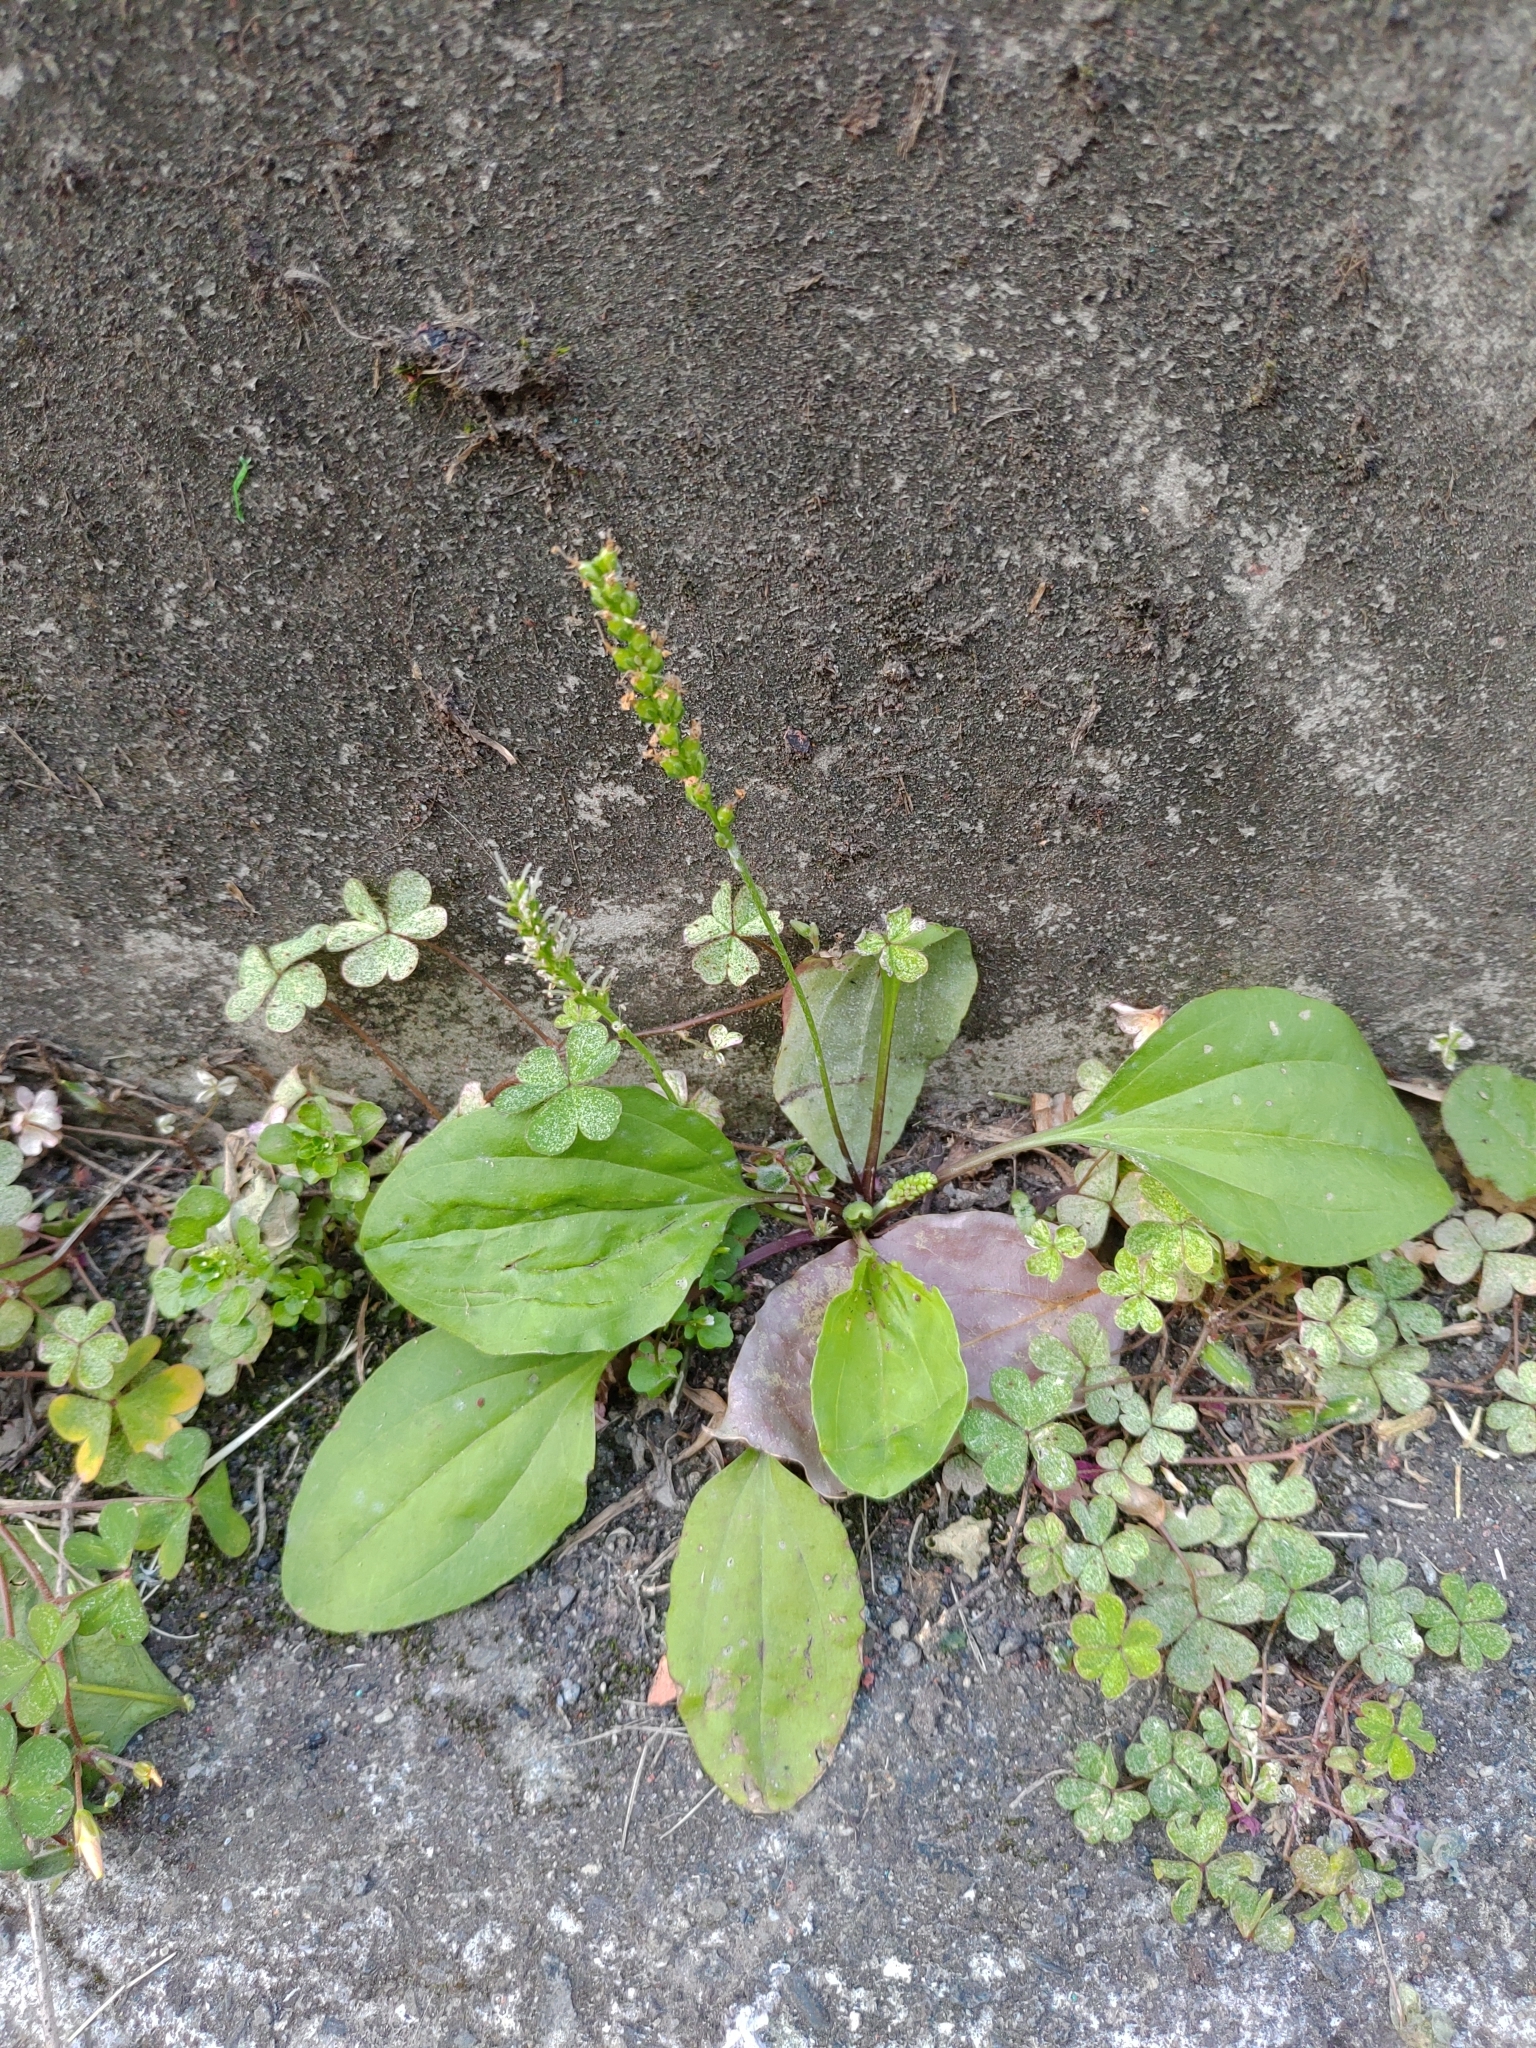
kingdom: Plantae
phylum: Tracheophyta
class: Magnoliopsida
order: Lamiales
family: Plantaginaceae
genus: Plantago
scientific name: Plantago asiatica
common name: Psyllium
